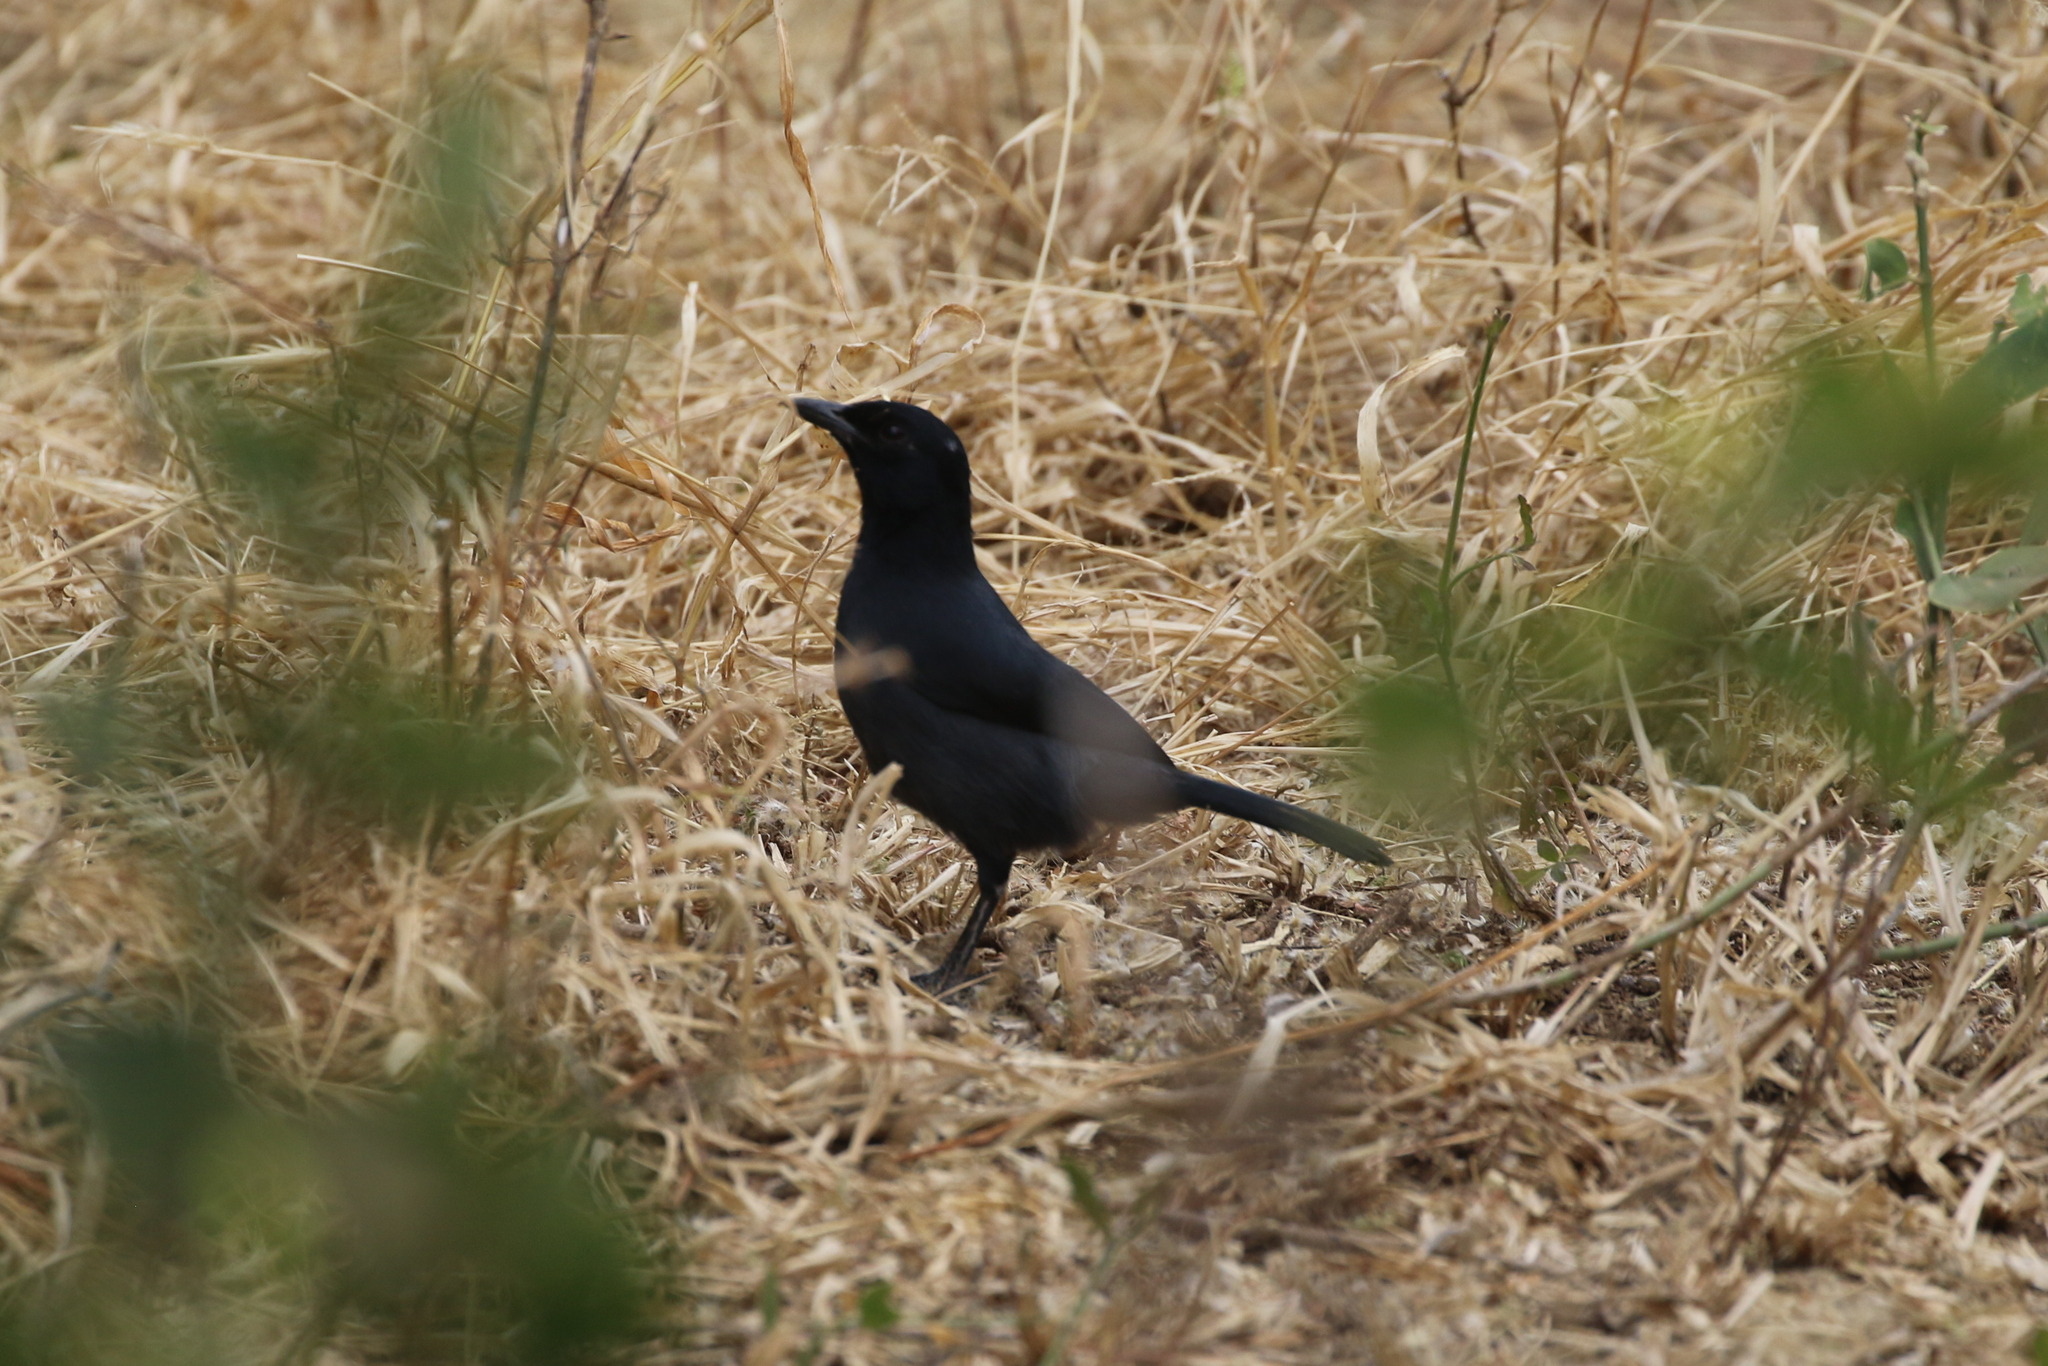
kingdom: Animalia
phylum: Chordata
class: Aves
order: Passeriformes
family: Malaconotidae
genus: Laniarius
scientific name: Laniarius funebris
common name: Slate-colored boubou
